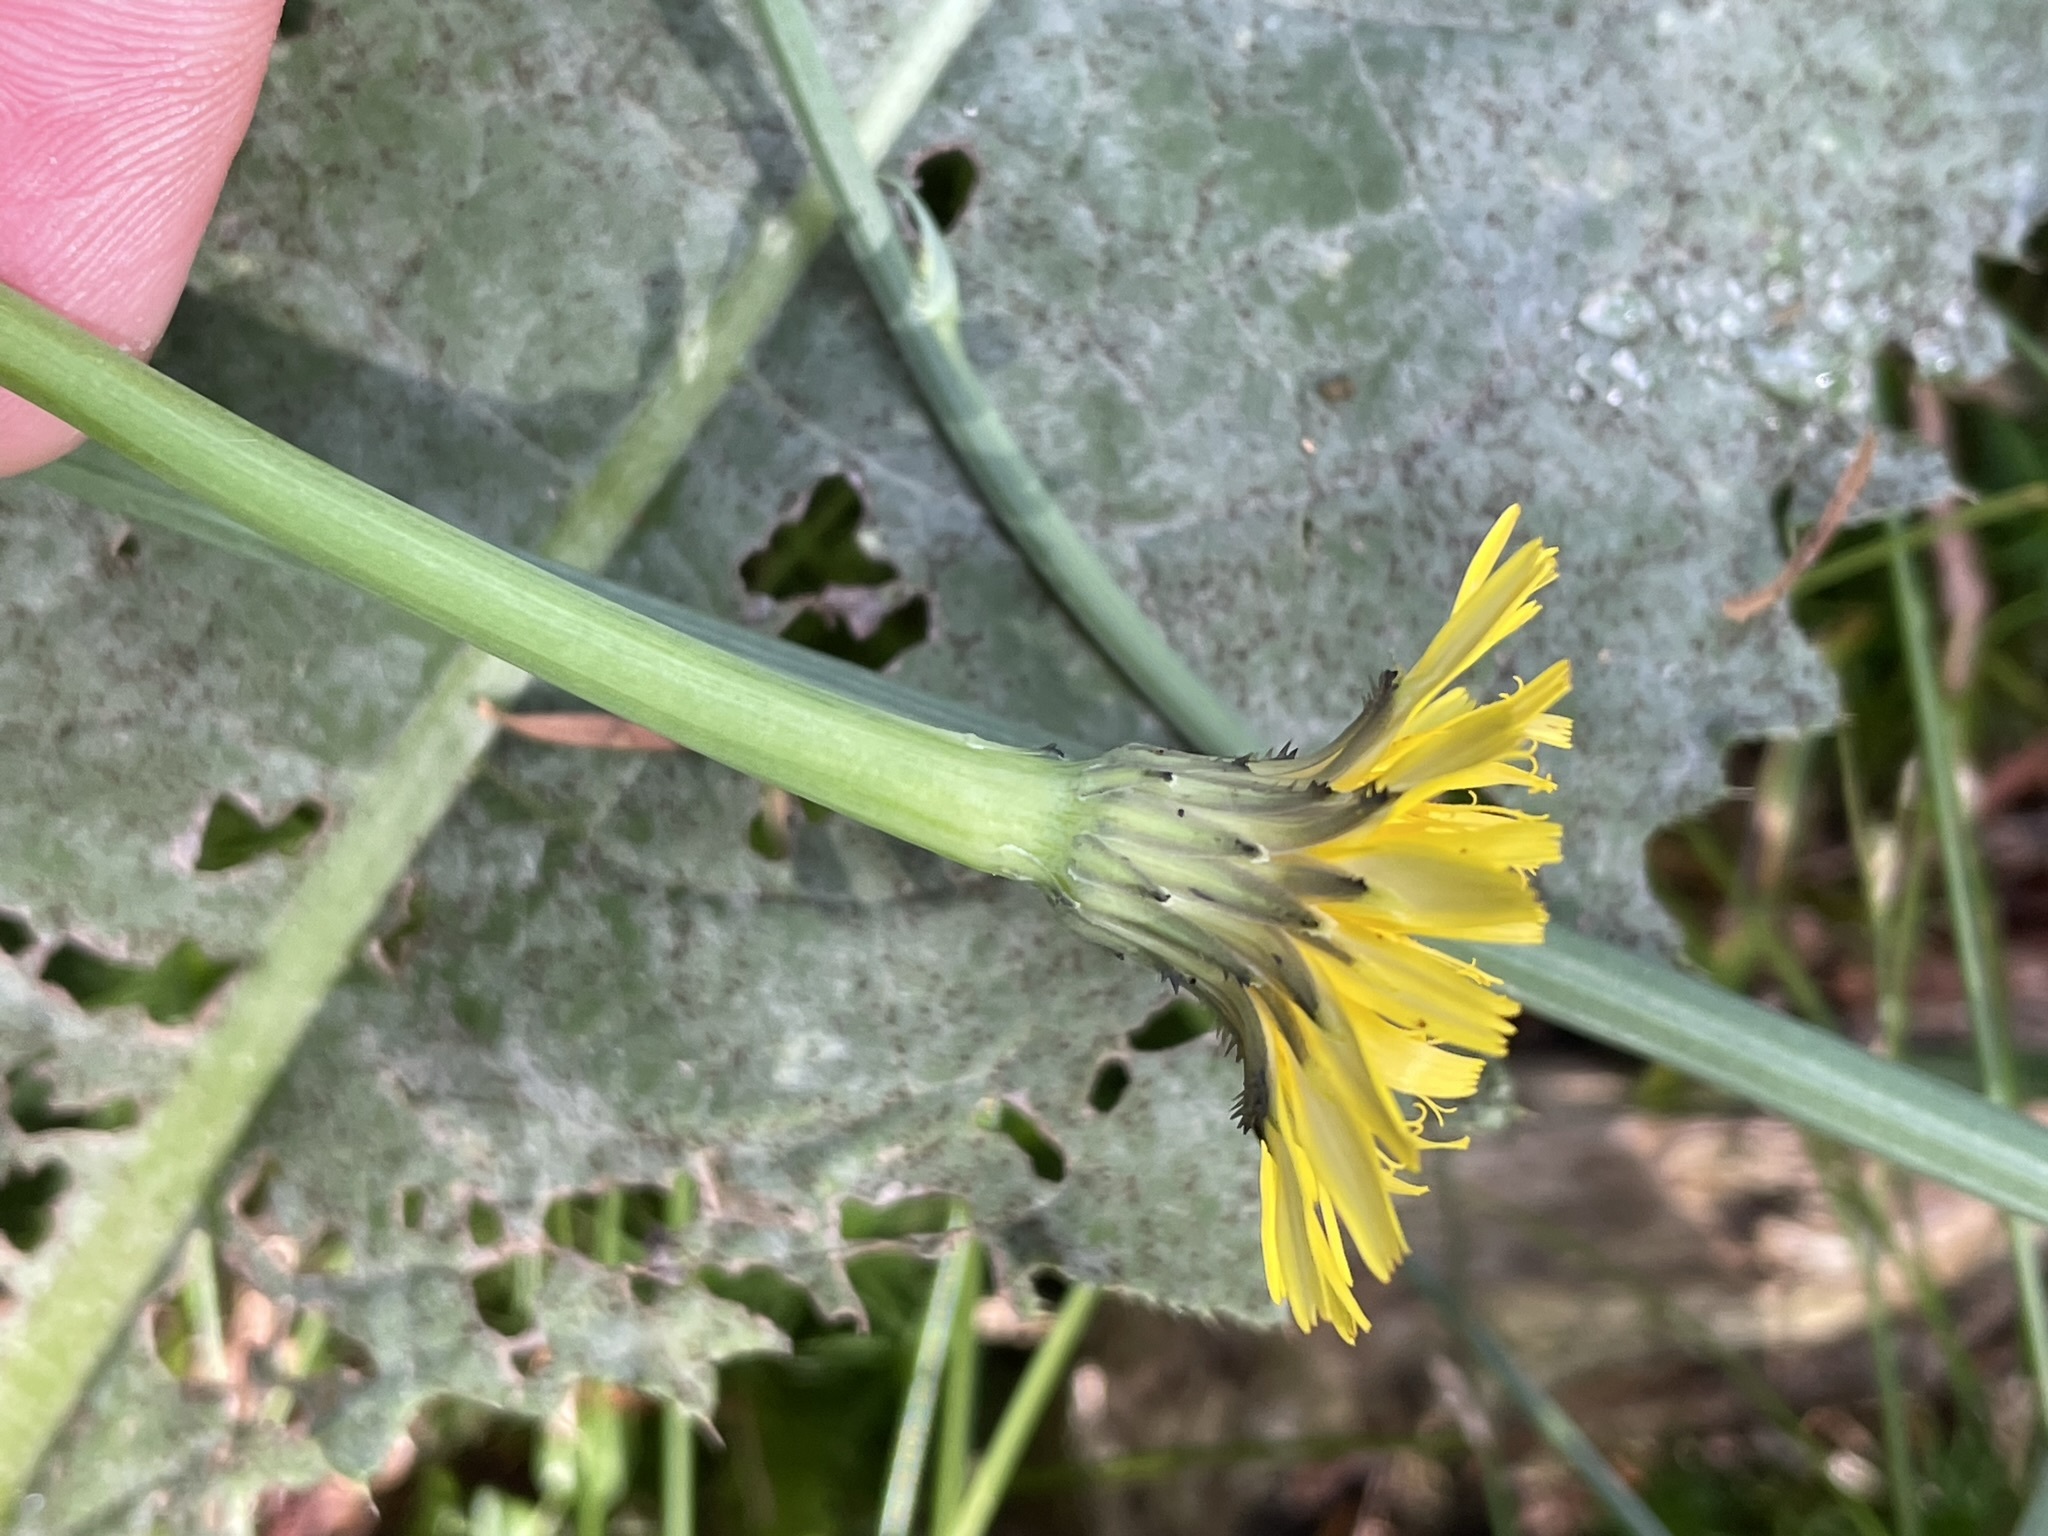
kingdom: Plantae
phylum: Tracheophyta
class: Magnoliopsida
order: Asterales
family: Asteraceae
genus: Hypochaeris
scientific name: Hypochaeris radicata
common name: Flatweed
